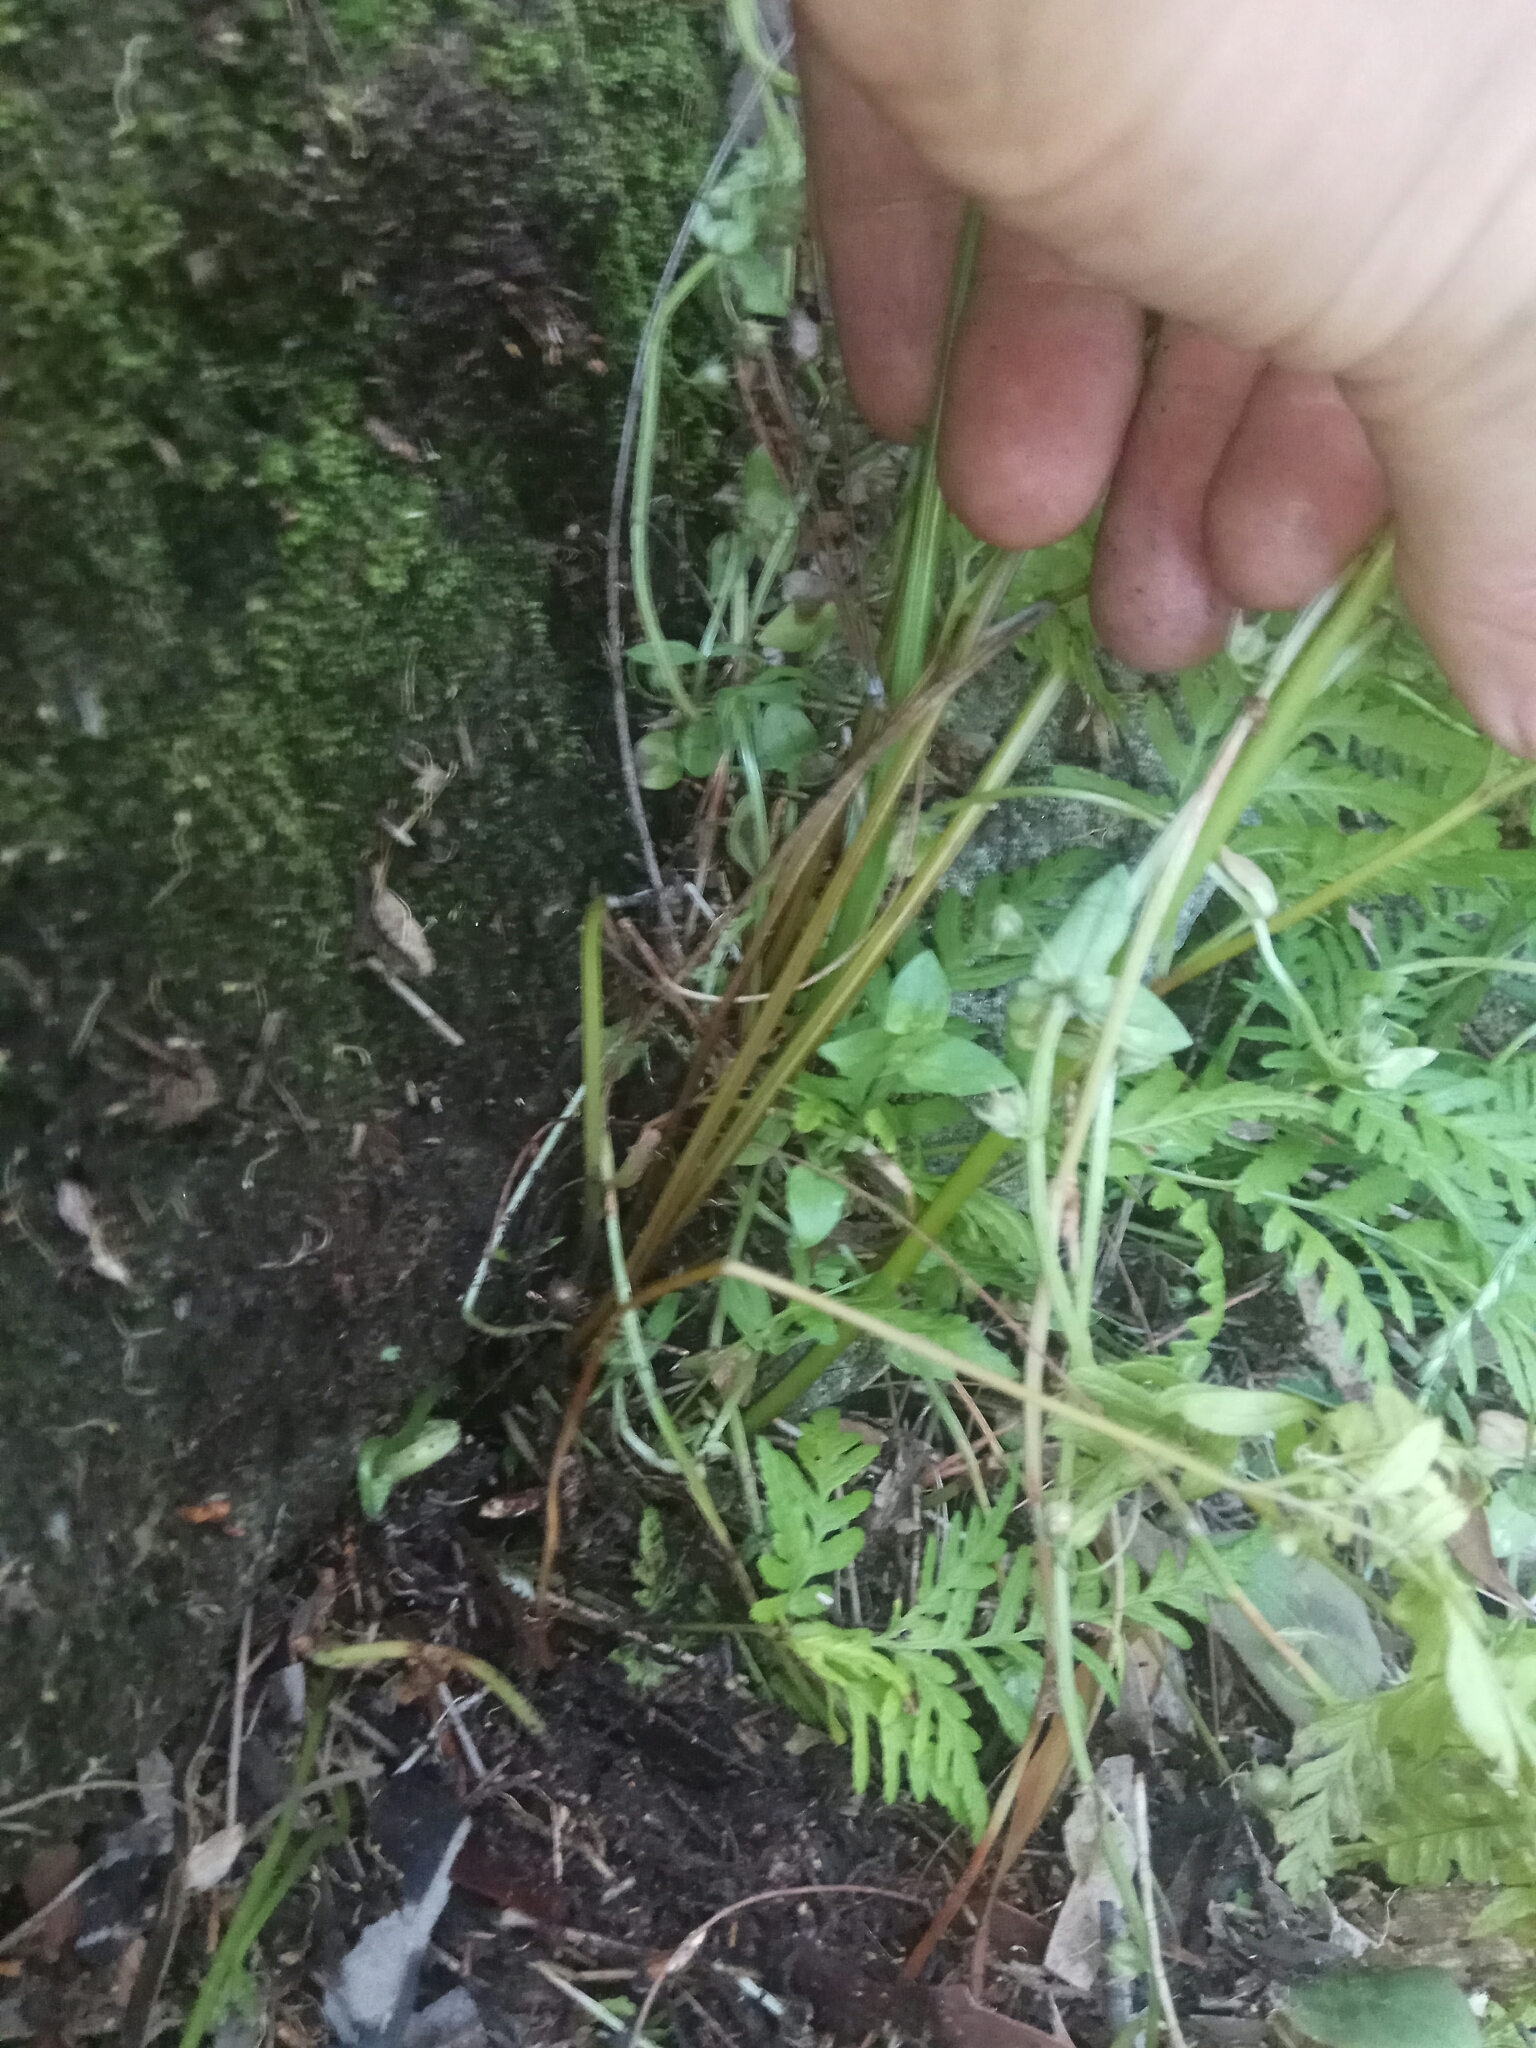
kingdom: Plantae
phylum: Tracheophyta
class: Polypodiopsida
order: Polypodiales
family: Pteridaceae
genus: Pteris
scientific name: Pteris tremula
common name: Australian brake
